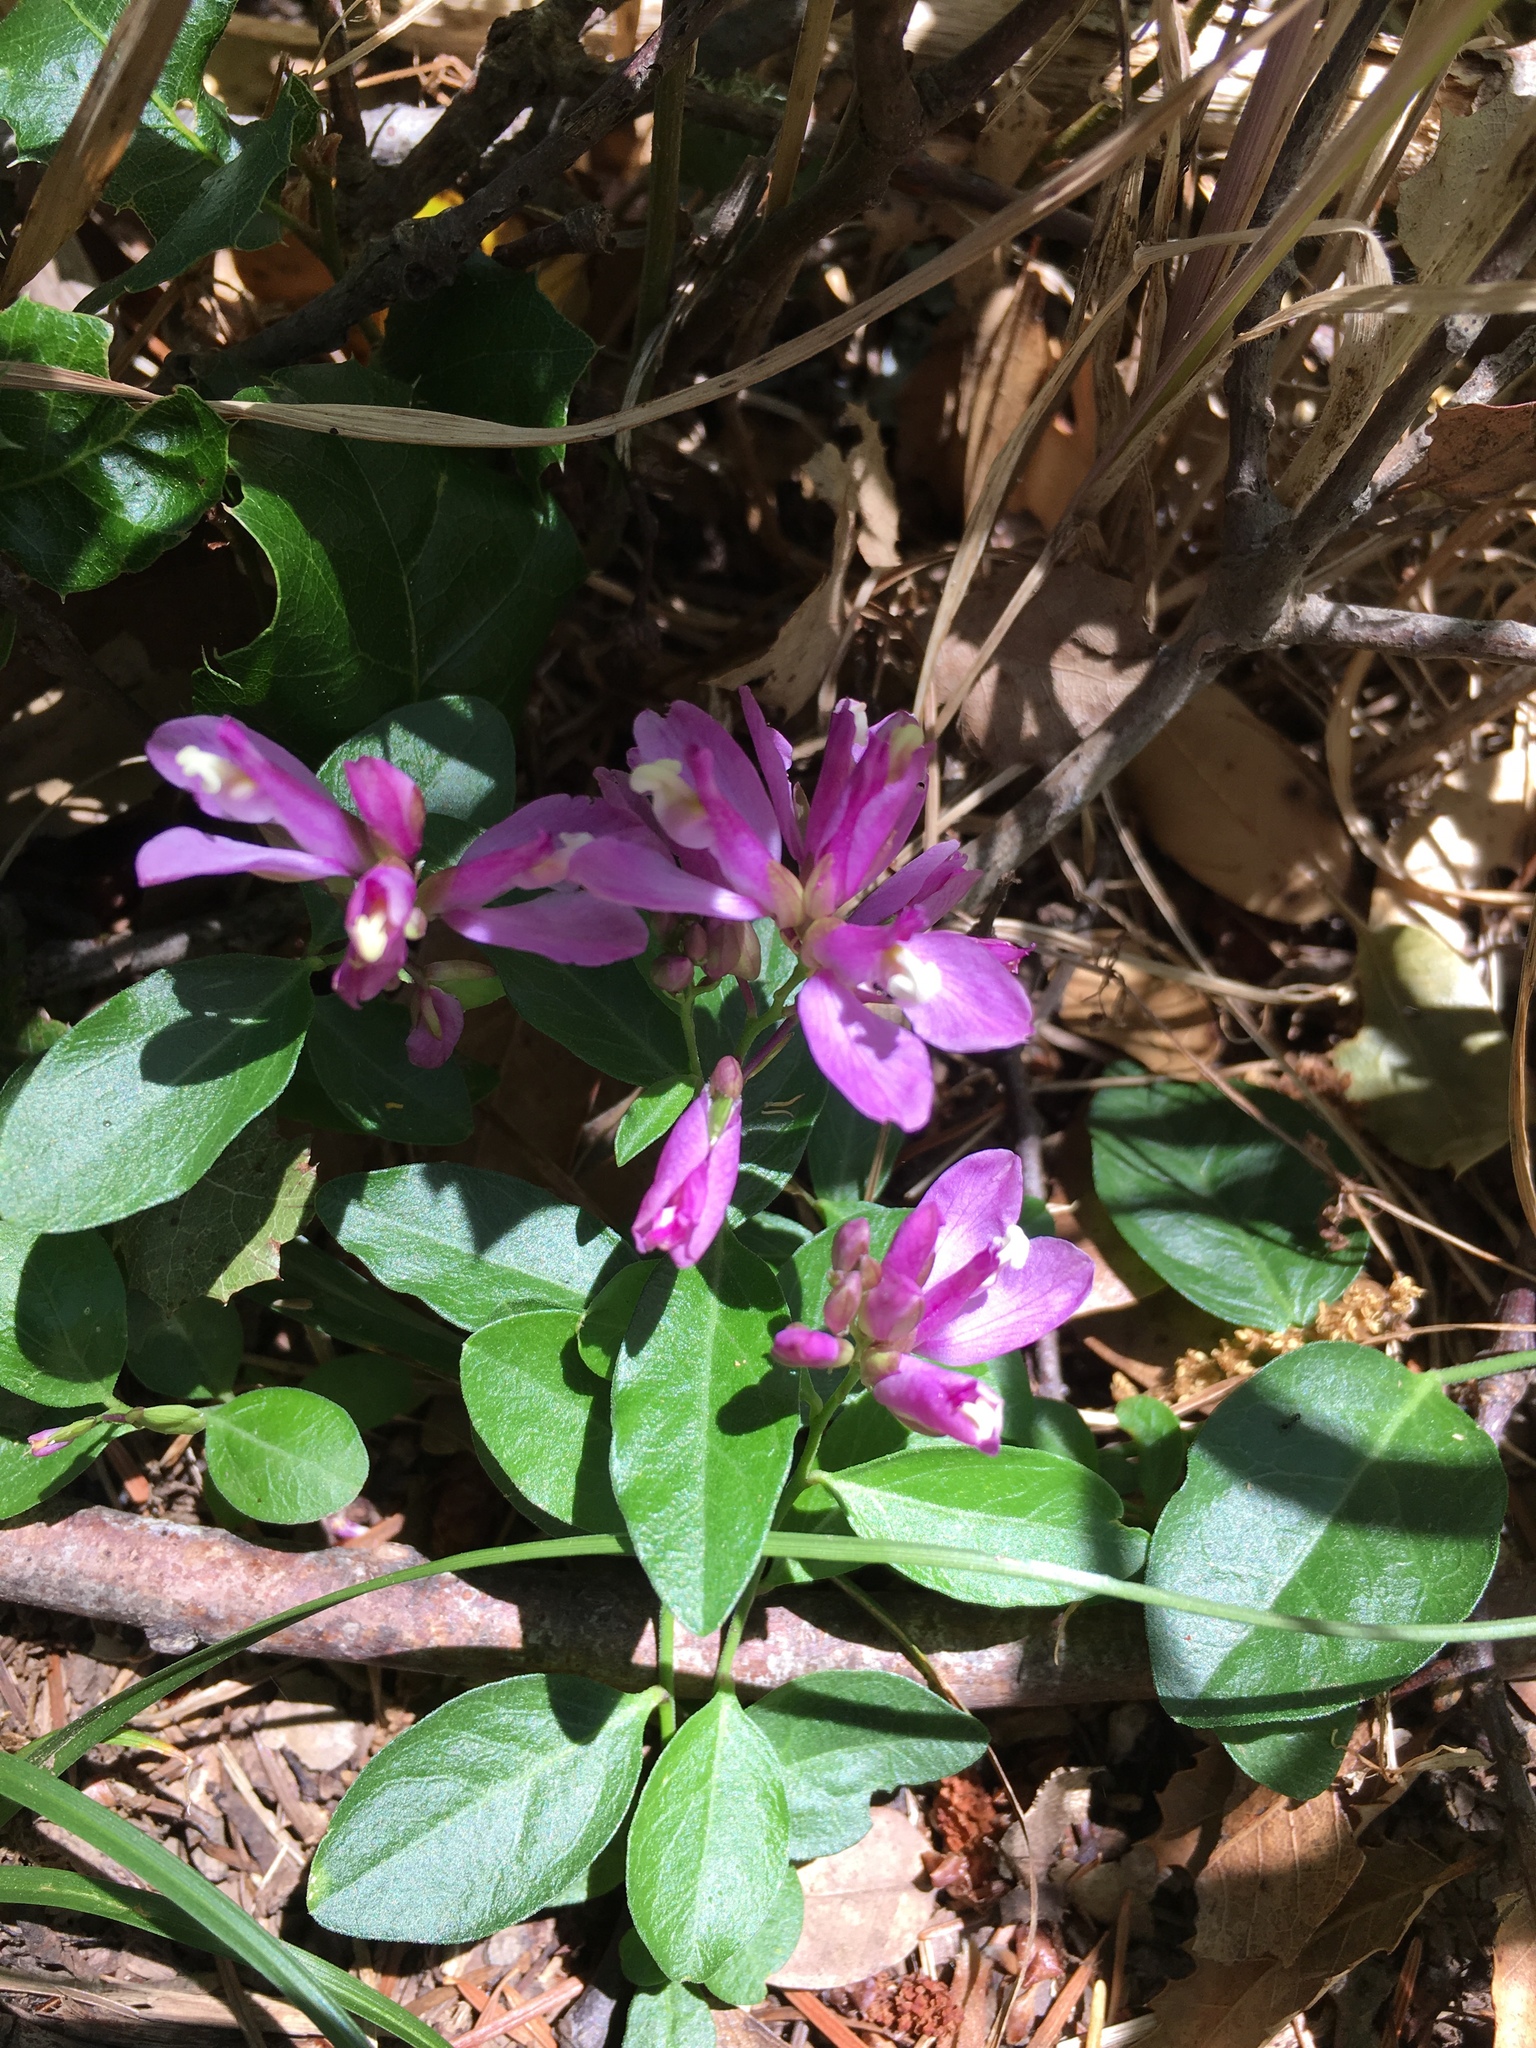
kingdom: Plantae
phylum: Tracheophyta
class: Magnoliopsida
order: Fabales
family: Polygalaceae
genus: Rhinotropis
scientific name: Rhinotropis californica
